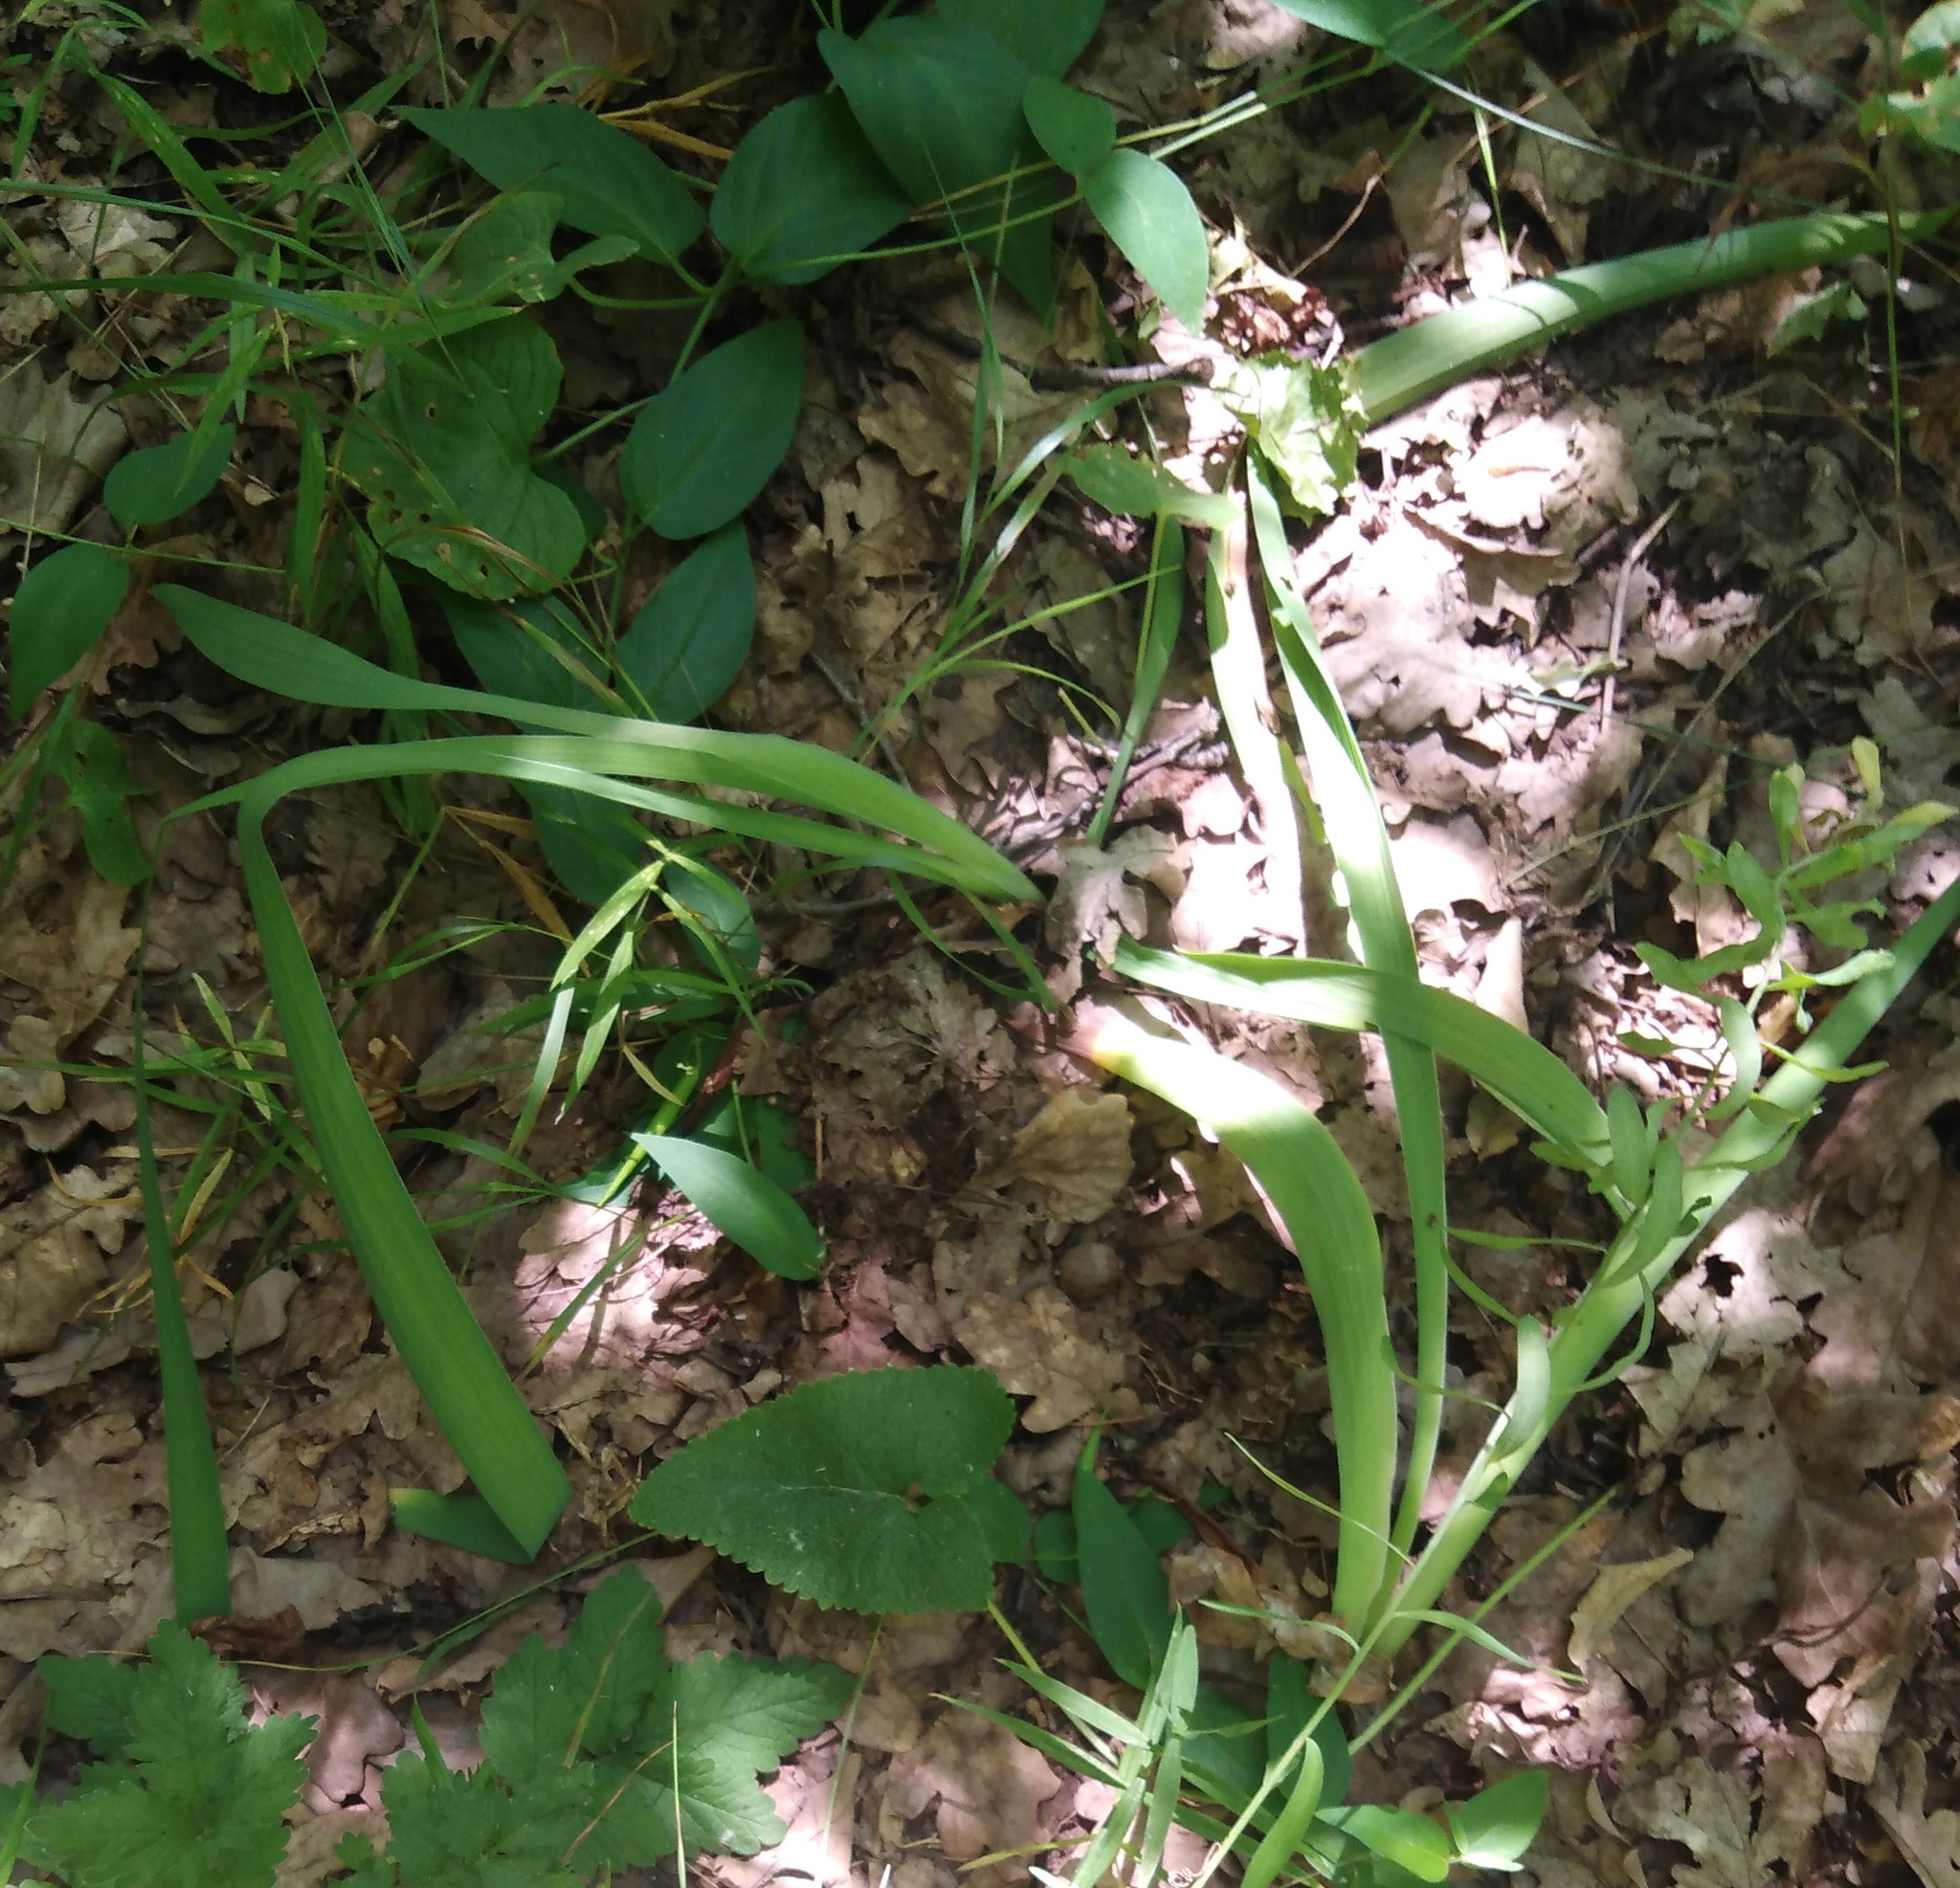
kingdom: Plantae
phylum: Tracheophyta
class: Liliopsida
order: Asparagales
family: Iridaceae
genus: Iris
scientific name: Iris aphylla
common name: Stool iris
